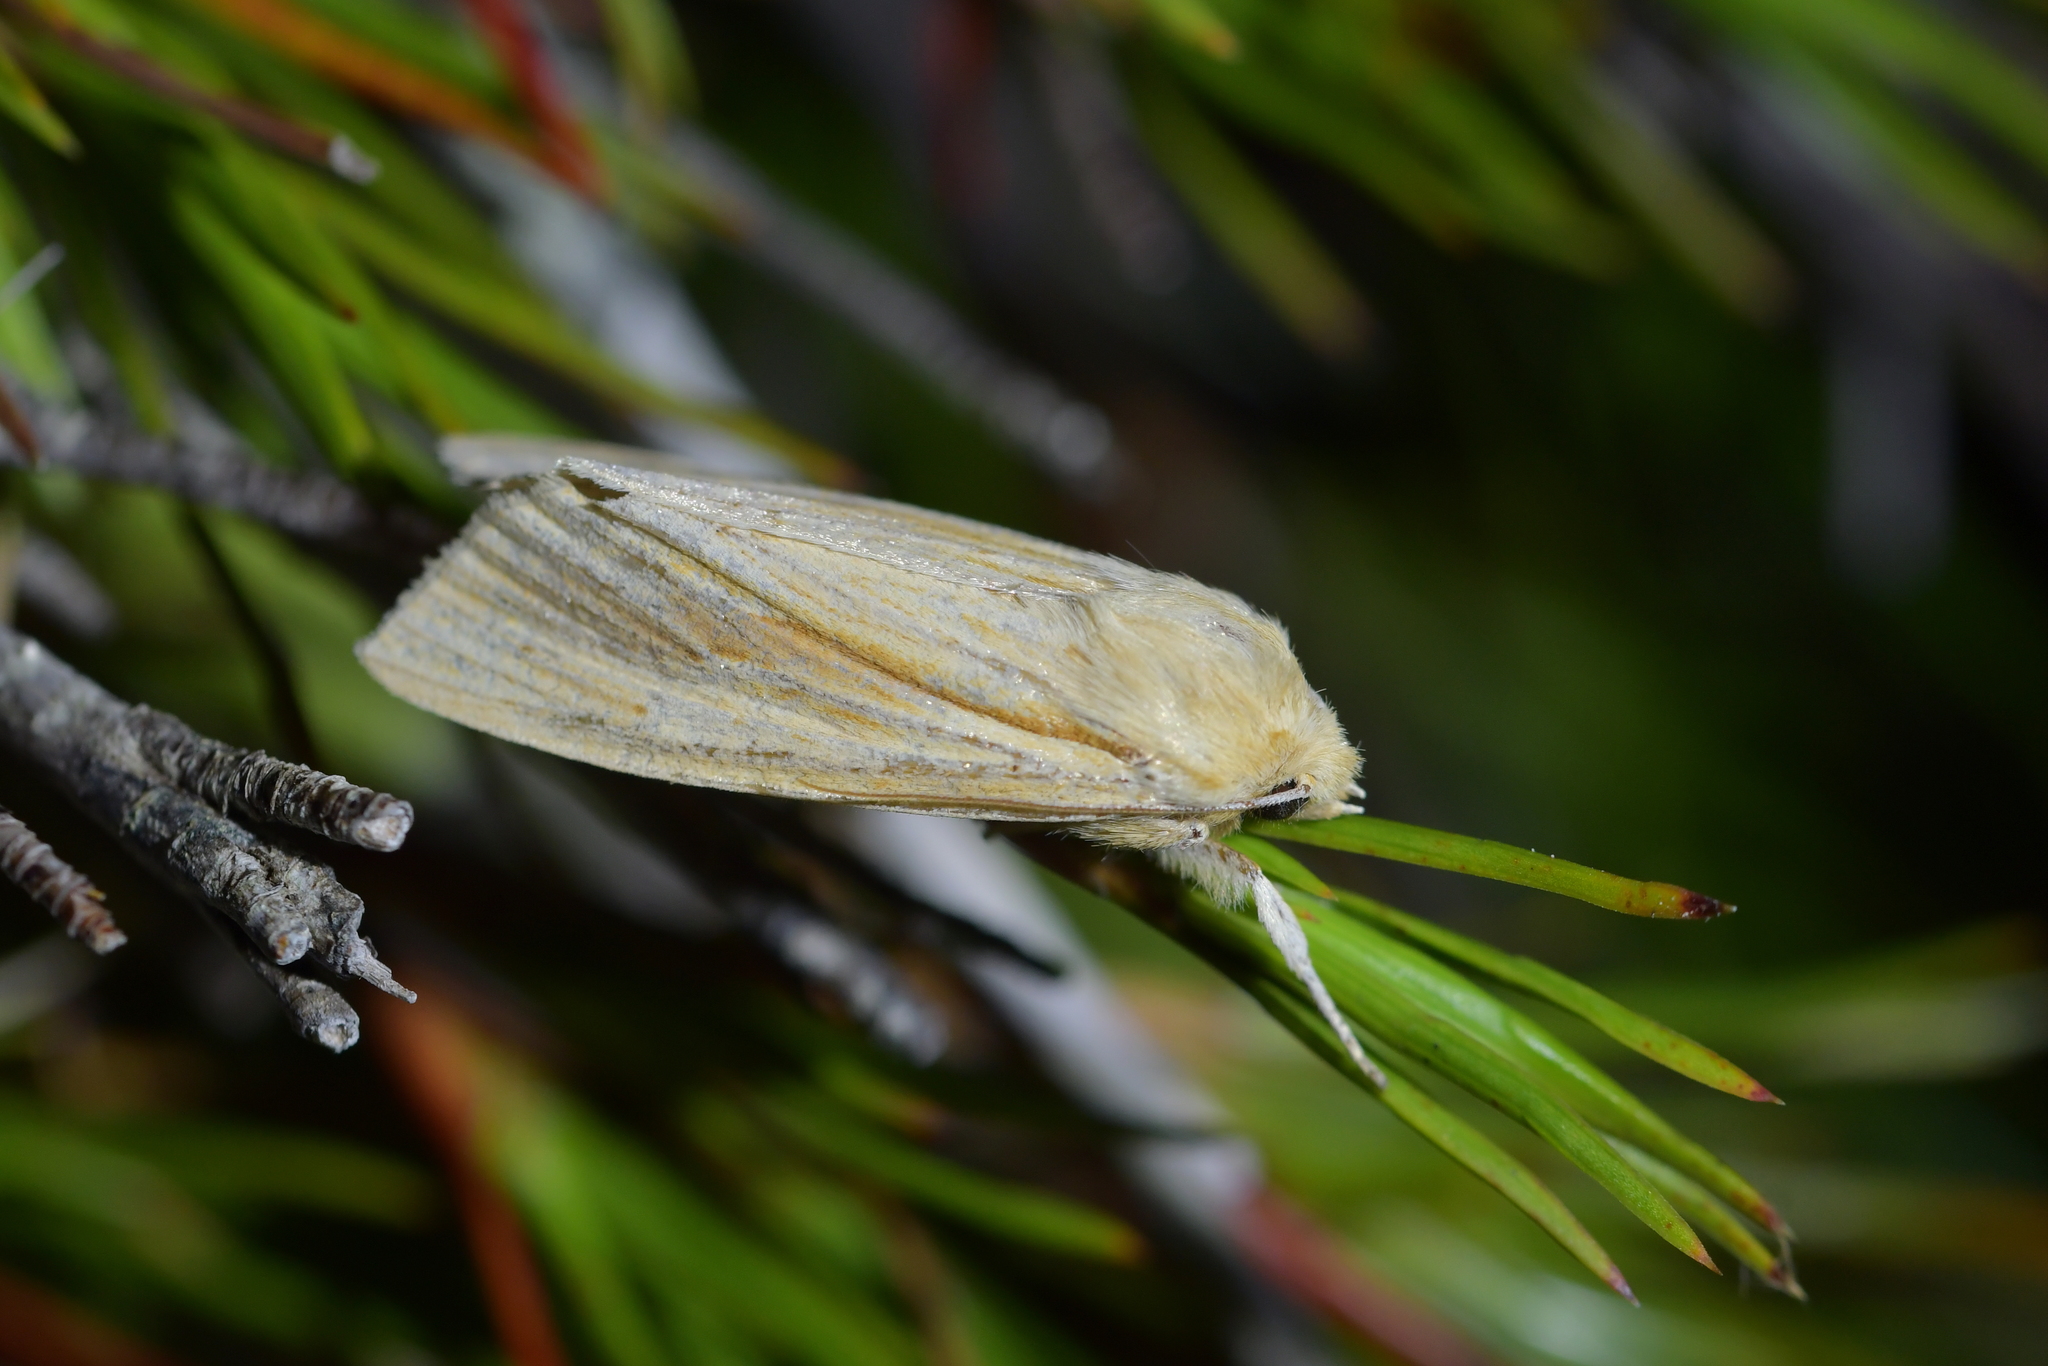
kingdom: Animalia
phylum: Arthropoda
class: Insecta
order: Lepidoptera
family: Noctuidae
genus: Ichneutica
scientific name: Ichneutica semivittata
